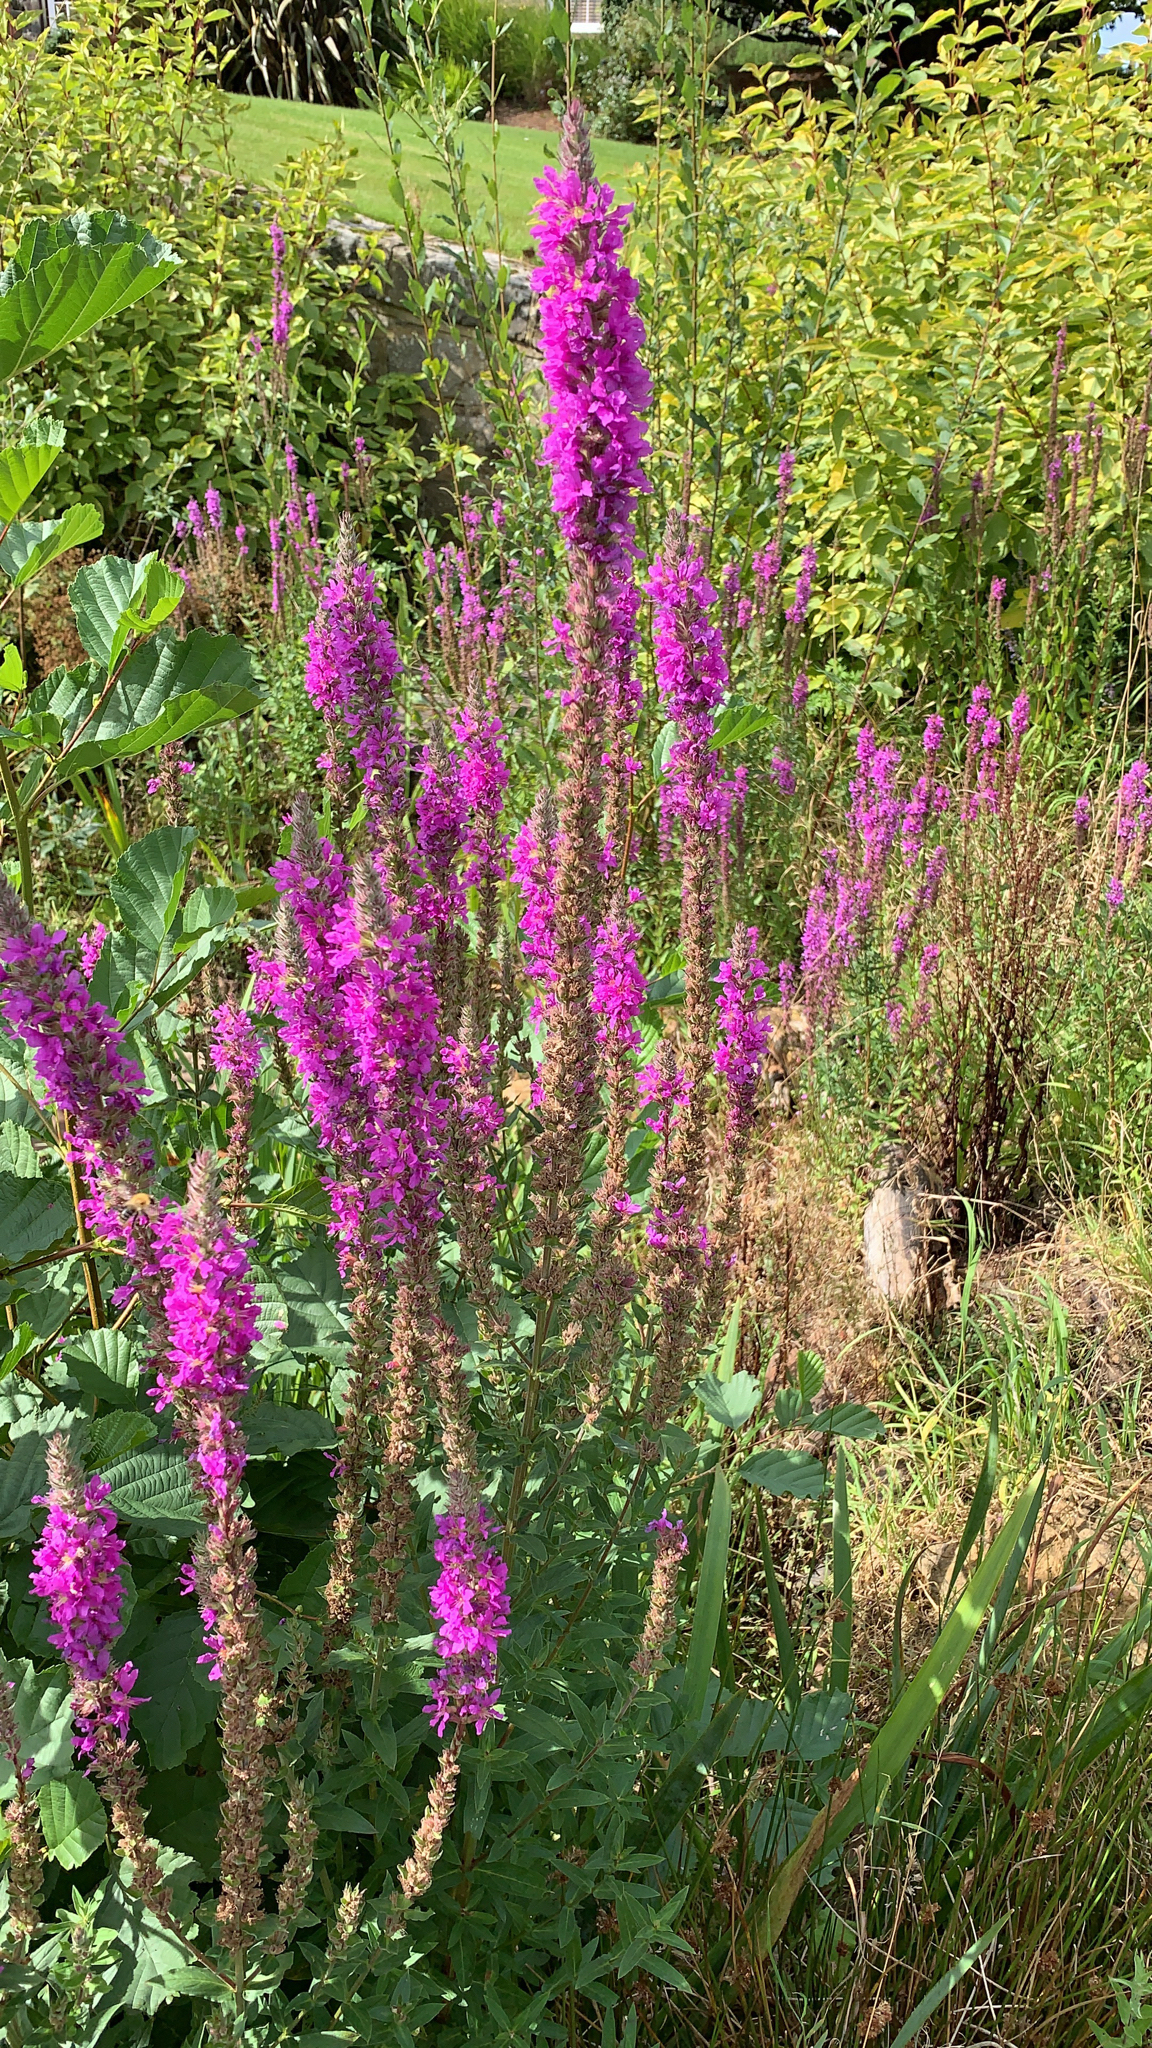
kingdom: Plantae
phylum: Tracheophyta
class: Magnoliopsida
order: Myrtales
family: Lythraceae
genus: Lythrum
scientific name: Lythrum salicaria
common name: Purple loosestrife
